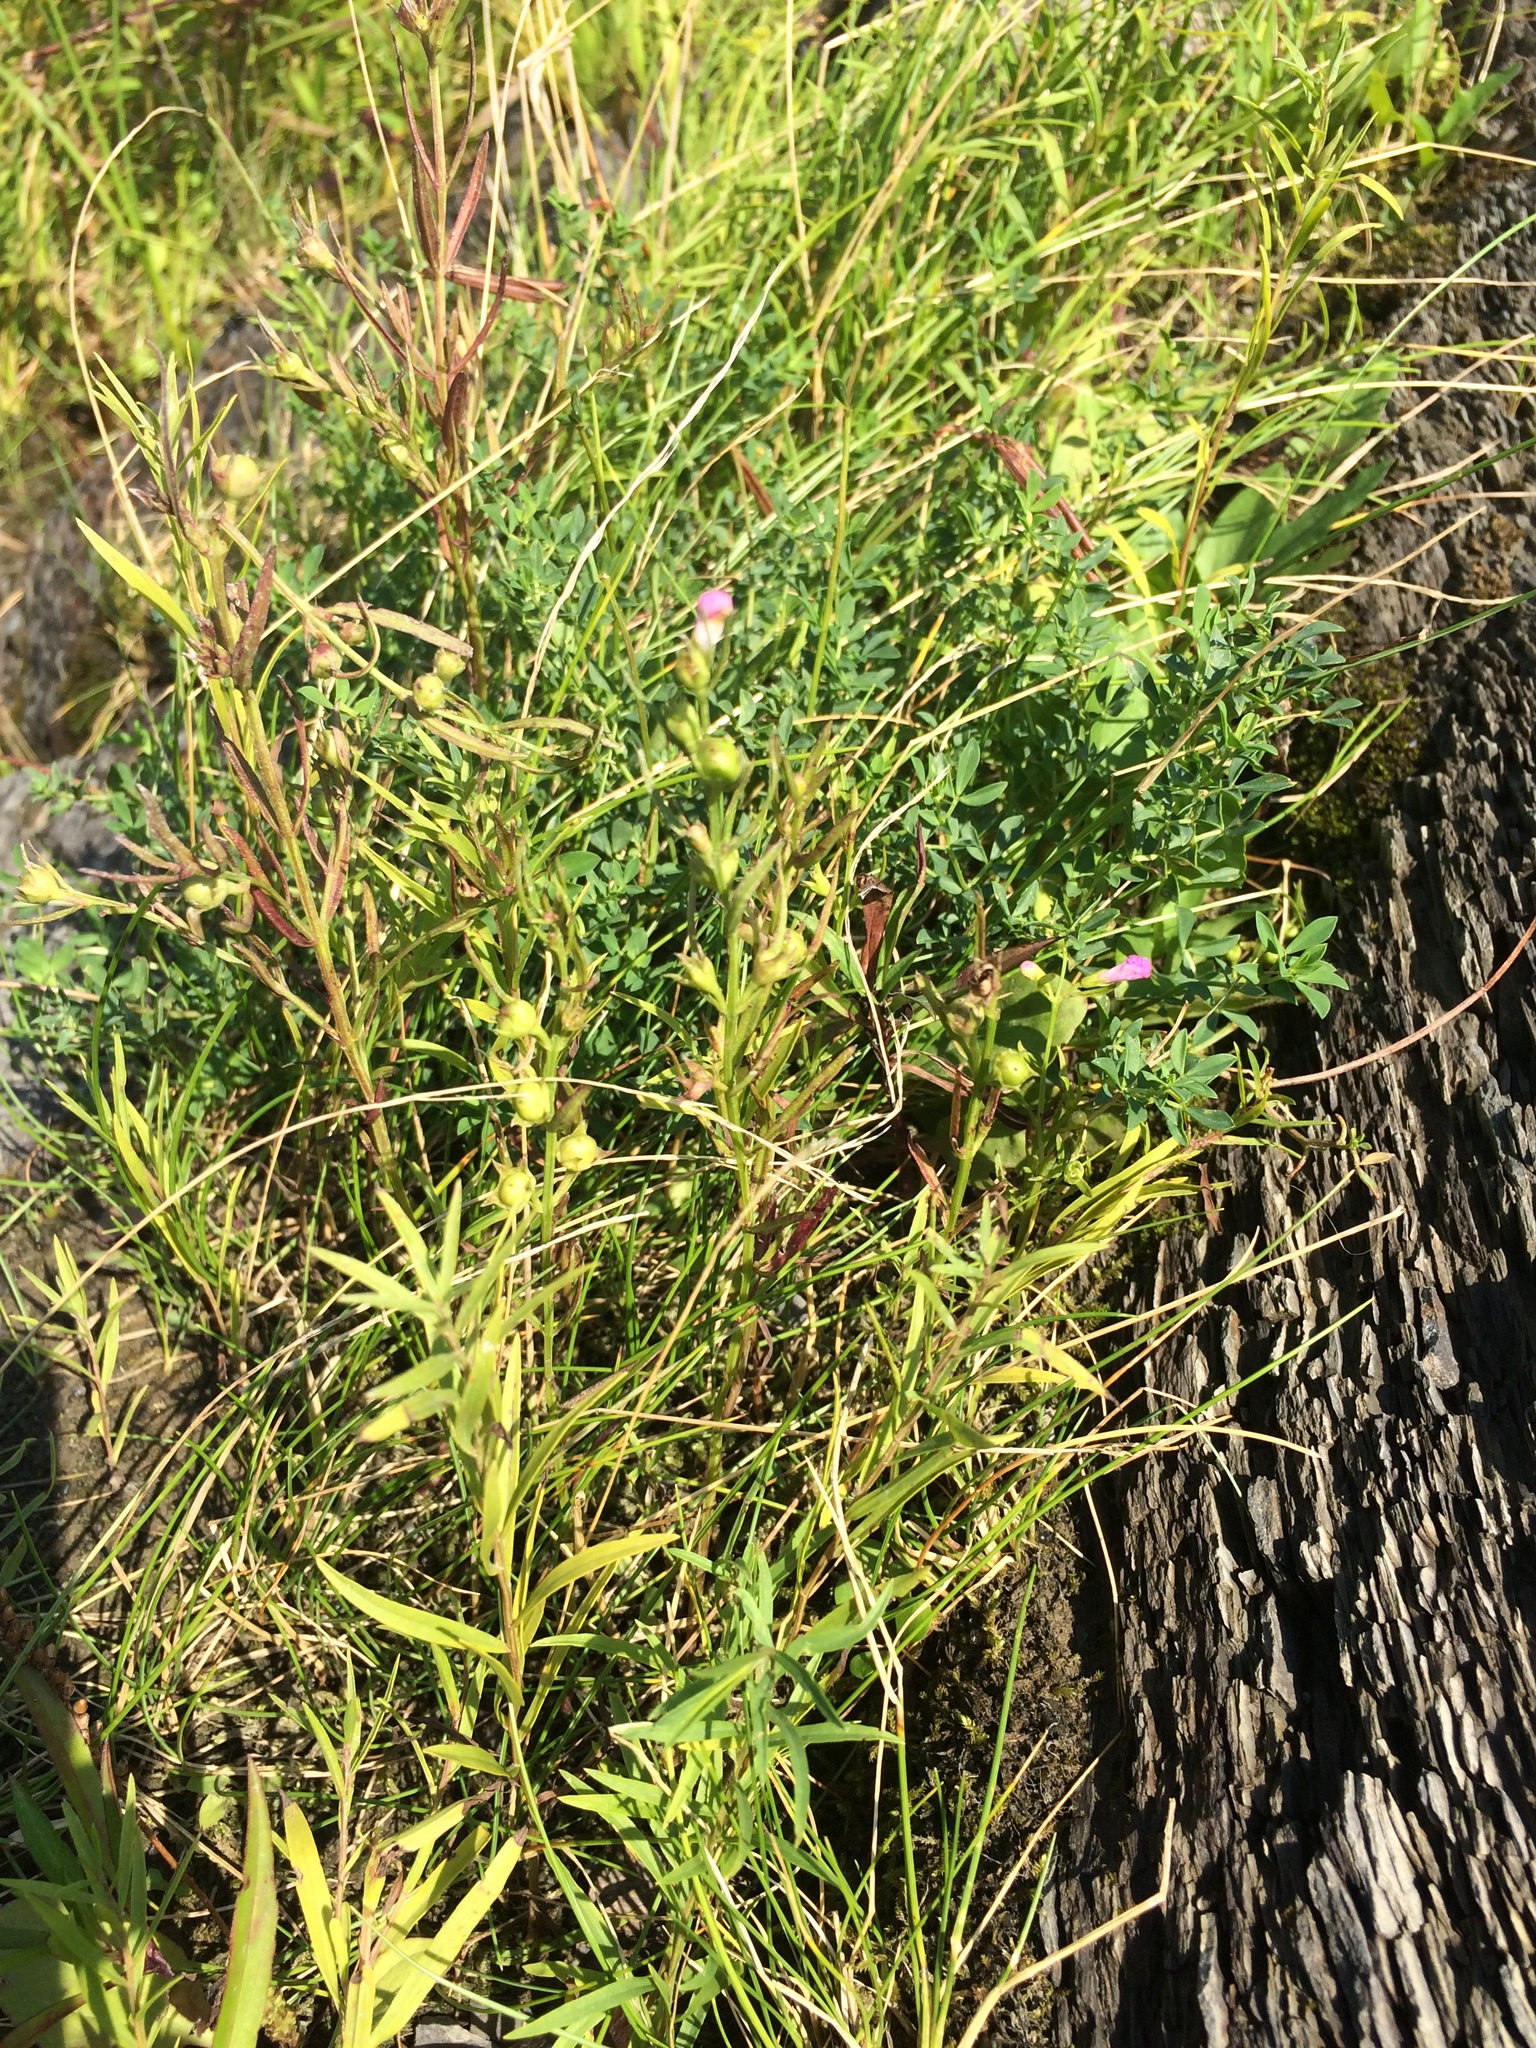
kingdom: Plantae
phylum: Tracheophyta
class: Magnoliopsida
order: Lamiales
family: Orobanchaceae
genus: Agalinis
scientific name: Agalinis purpurea
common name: Purple false foxglove
